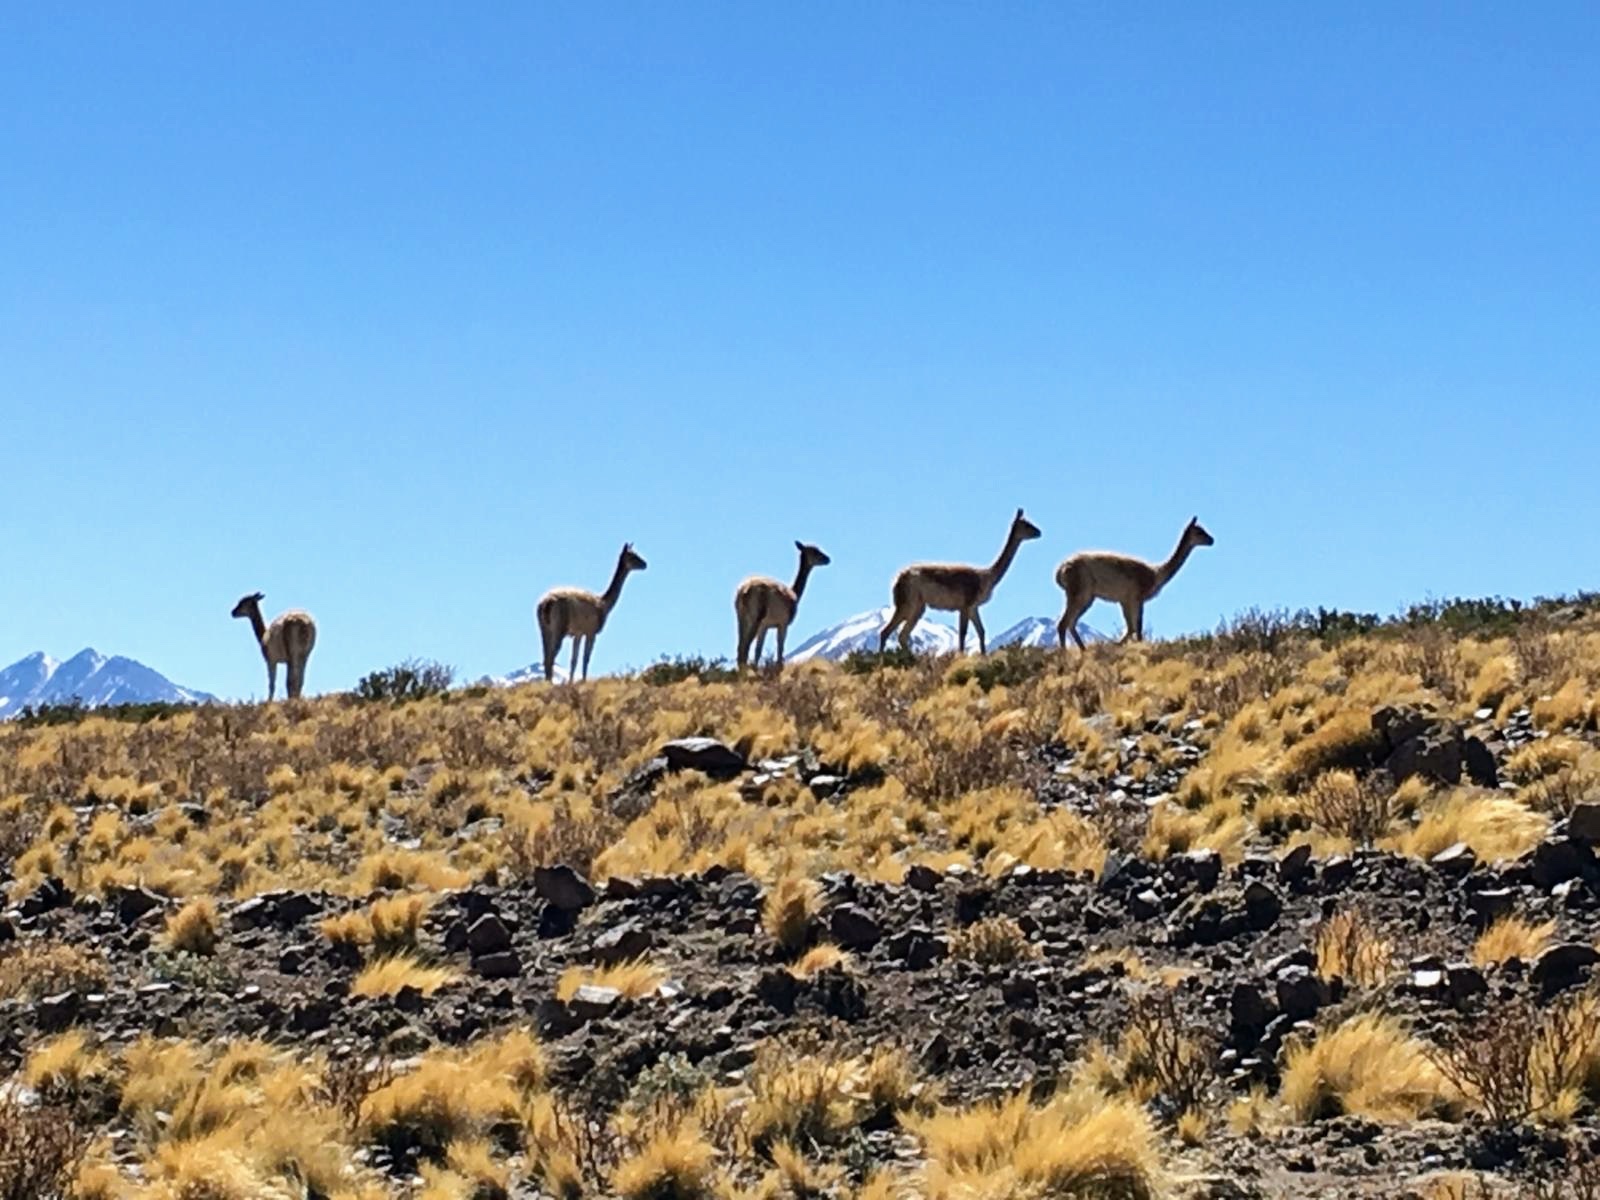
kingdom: Animalia
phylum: Chordata
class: Mammalia
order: Artiodactyla
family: Camelidae
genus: Vicugna
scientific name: Vicugna vicugna
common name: Vicugna
